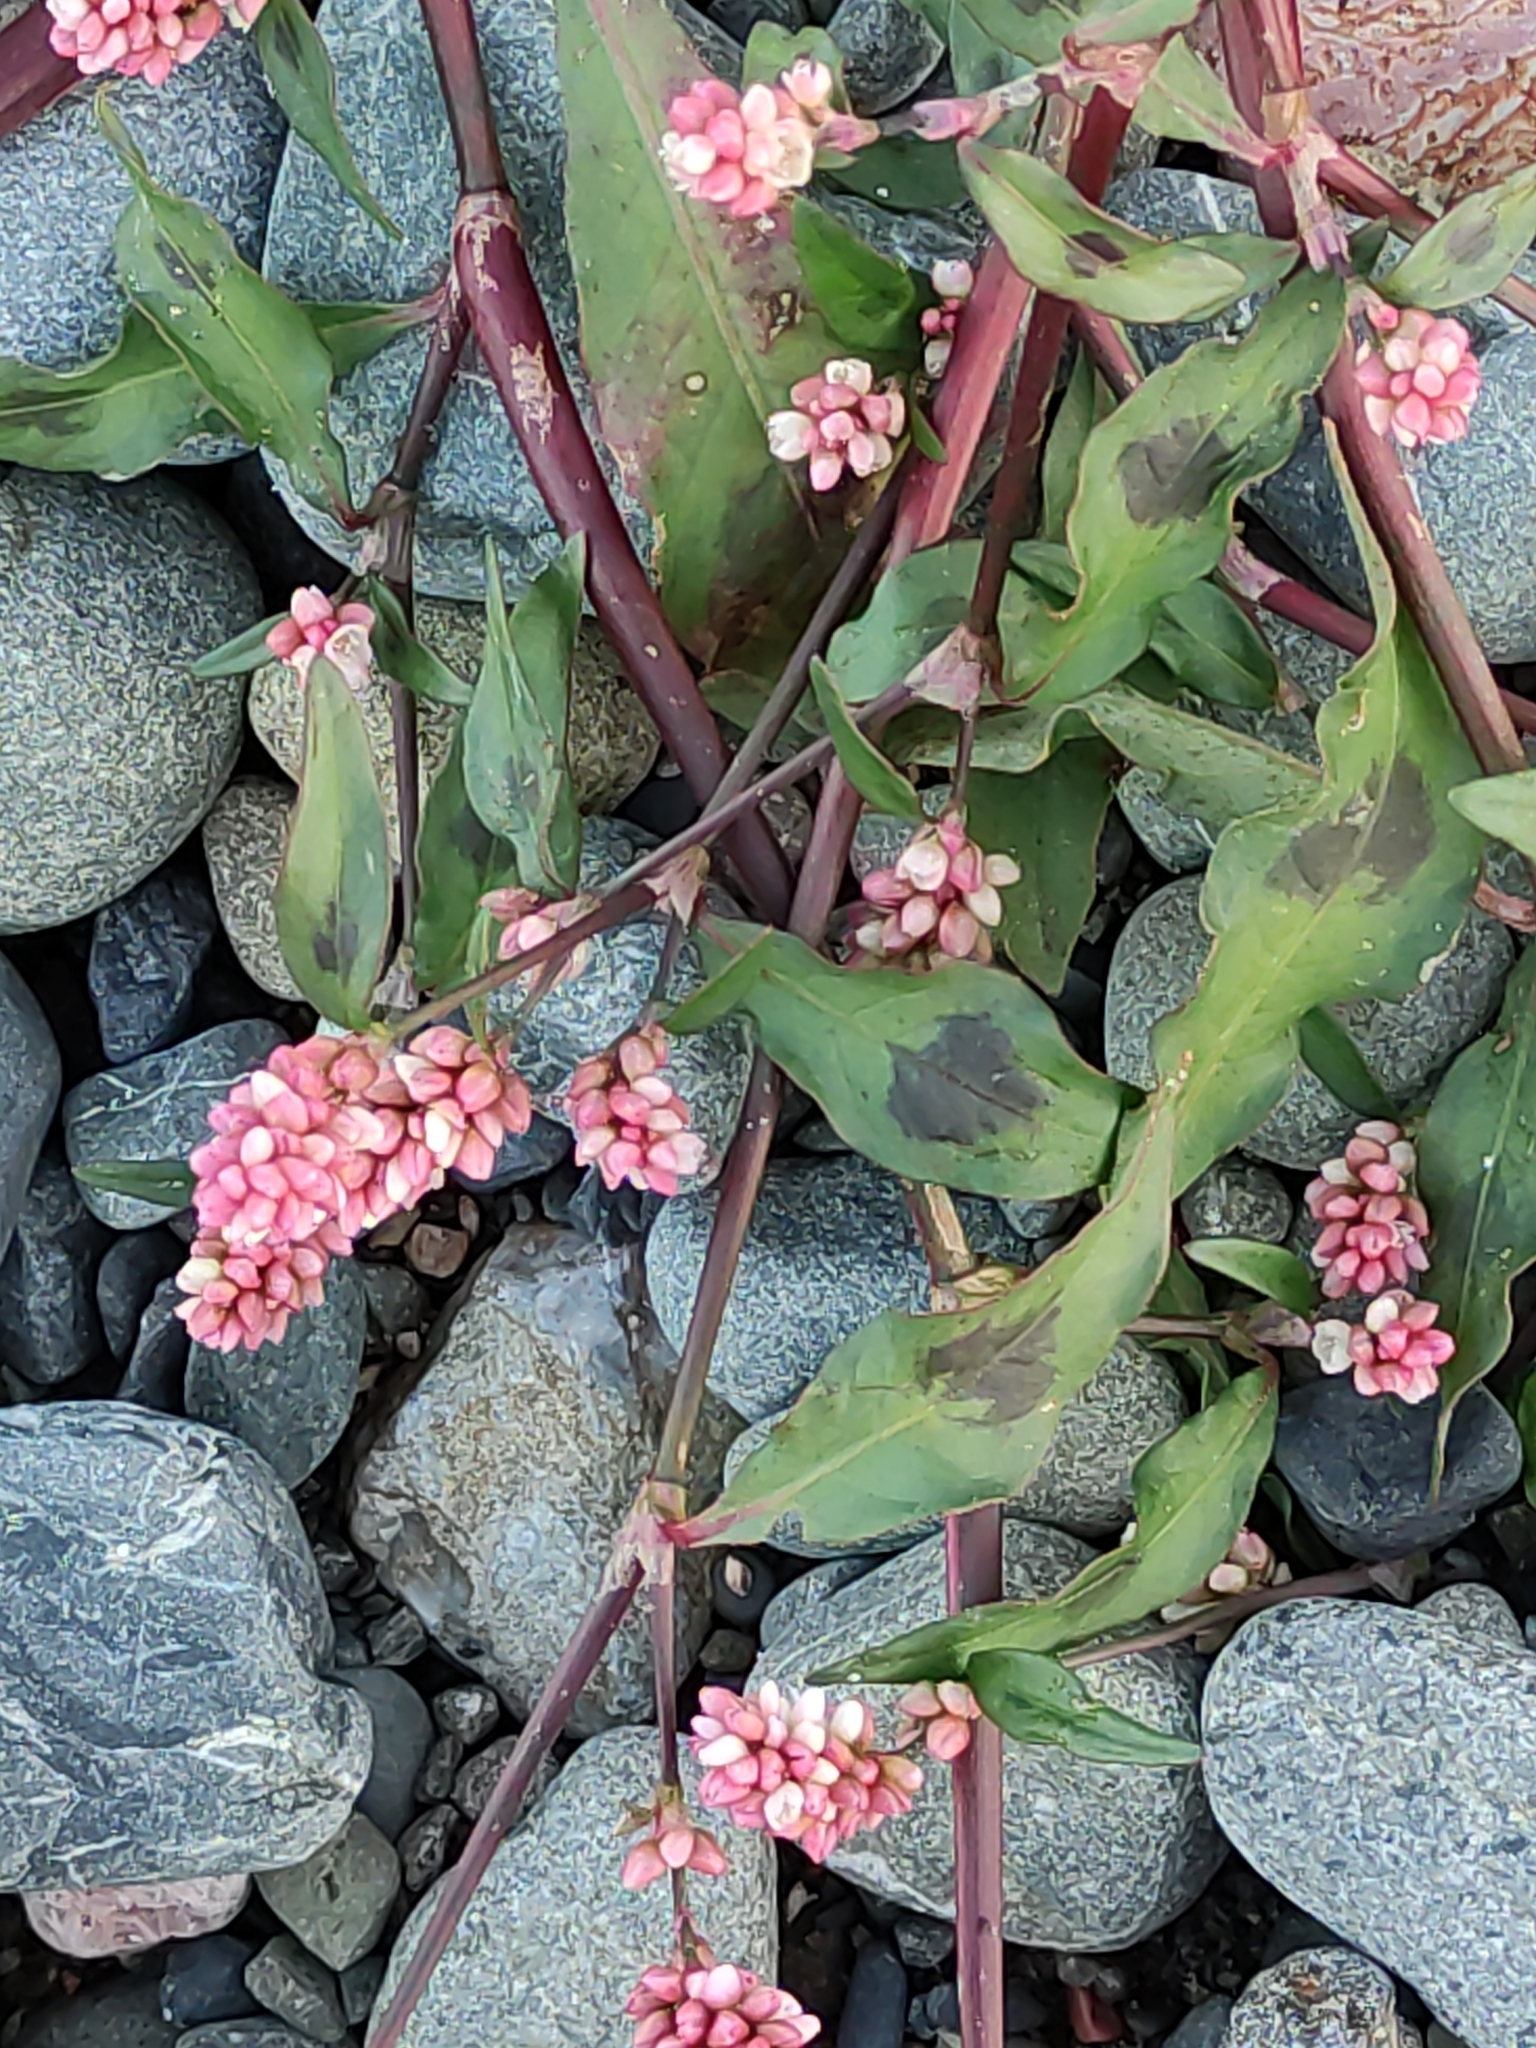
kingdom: Plantae
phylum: Tracheophyta
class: Magnoliopsida
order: Caryophyllales
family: Polygonaceae
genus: Persicaria
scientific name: Persicaria maculosa
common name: Redshank
